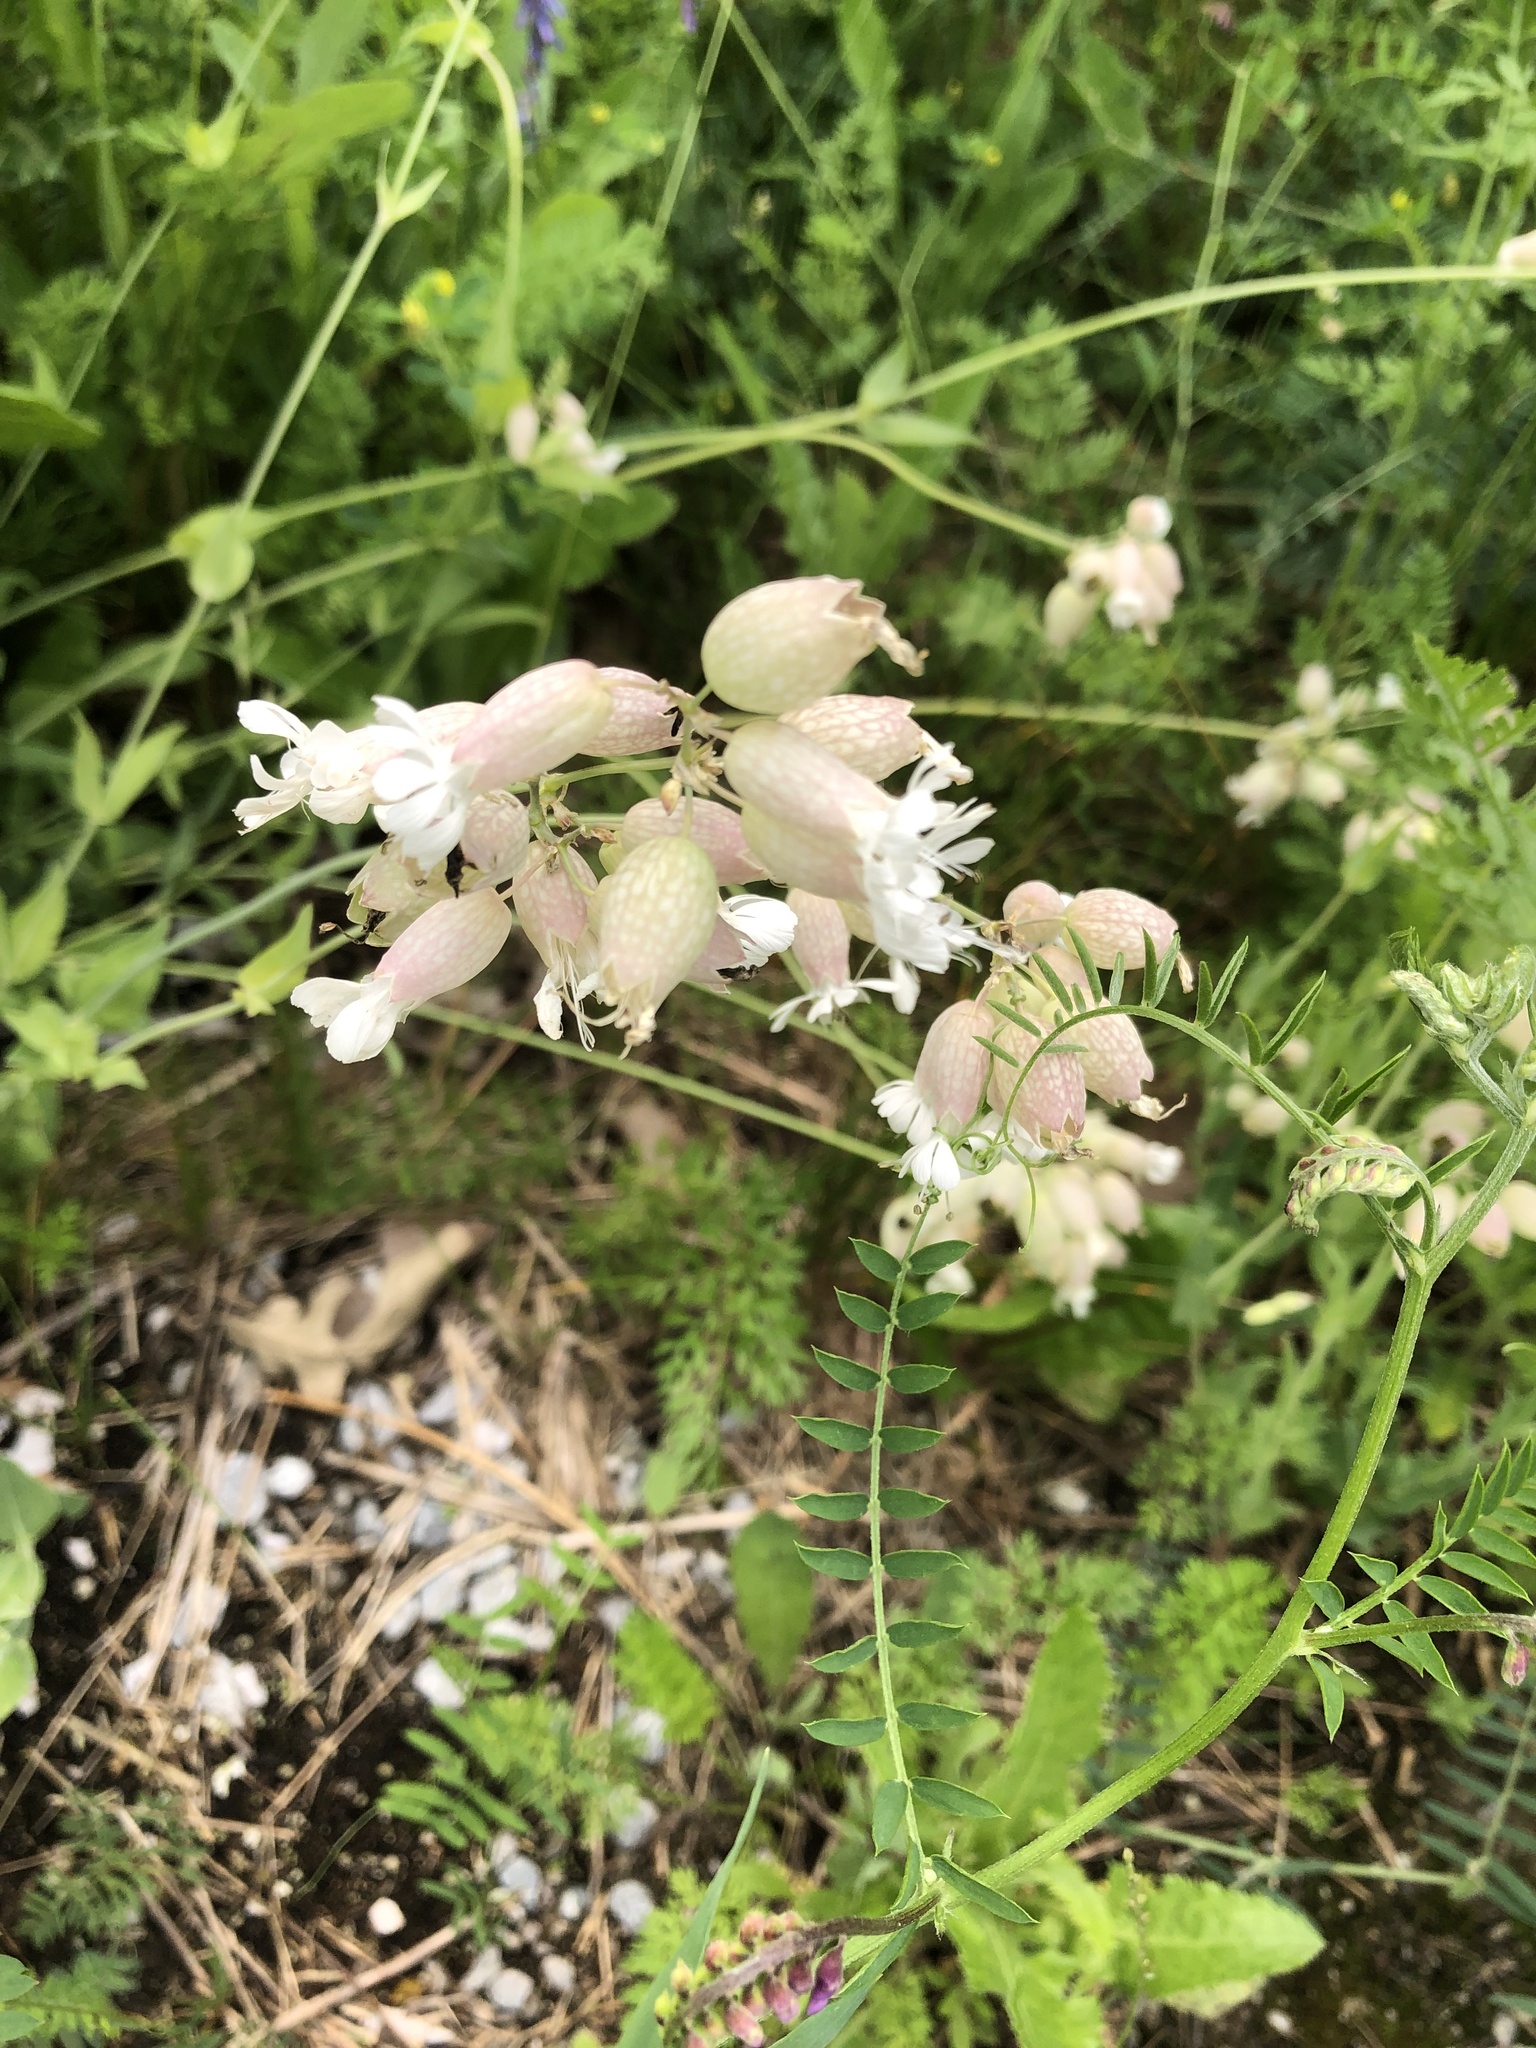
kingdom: Plantae
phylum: Tracheophyta
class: Magnoliopsida
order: Caryophyllales
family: Caryophyllaceae
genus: Silene
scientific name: Silene vulgaris
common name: Bladder campion
